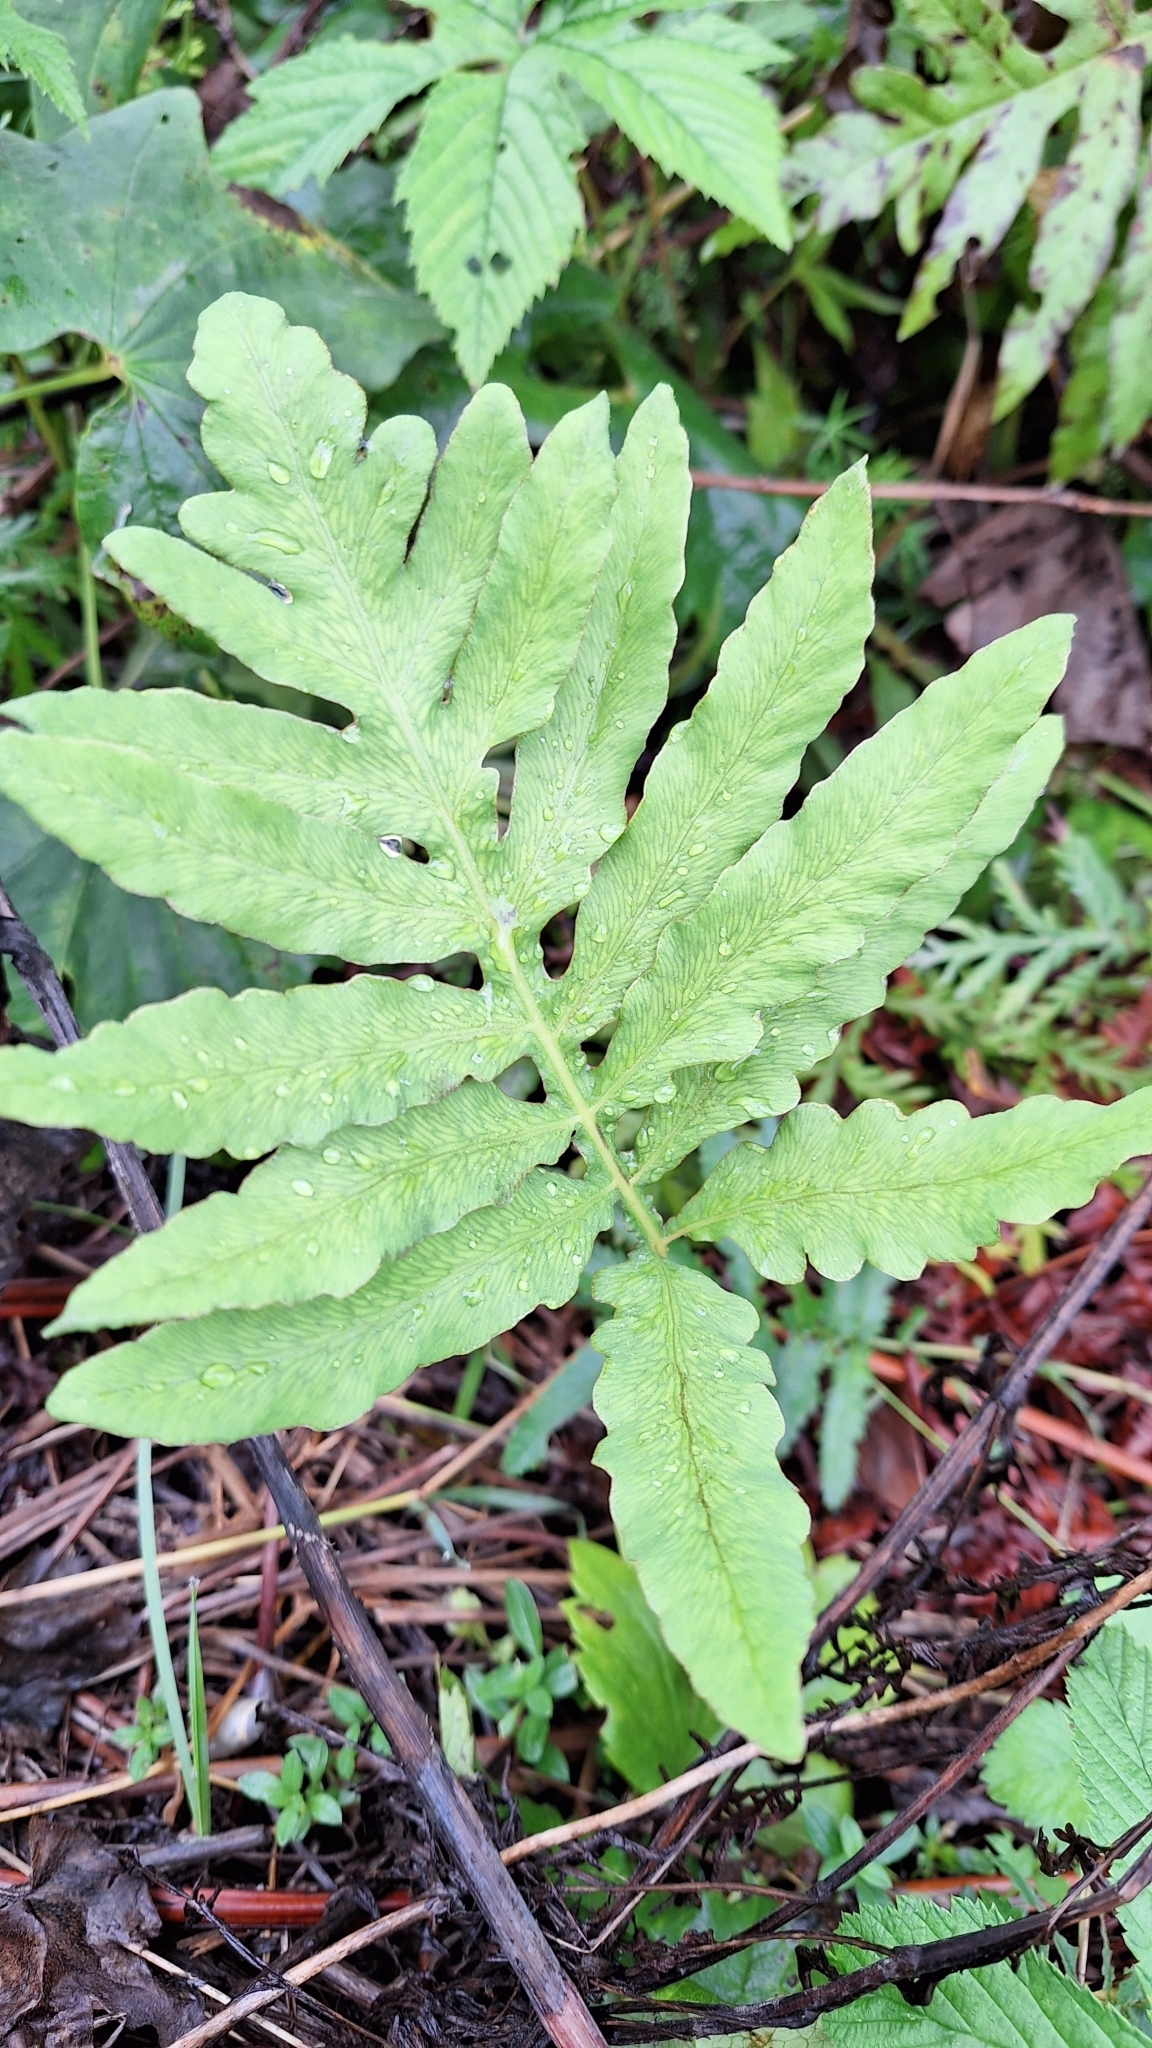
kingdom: Plantae
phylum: Tracheophyta
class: Polypodiopsida
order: Polypodiales
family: Onocleaceae
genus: Onoclea
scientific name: Onoclea sensibilis
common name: Sensitive fern
